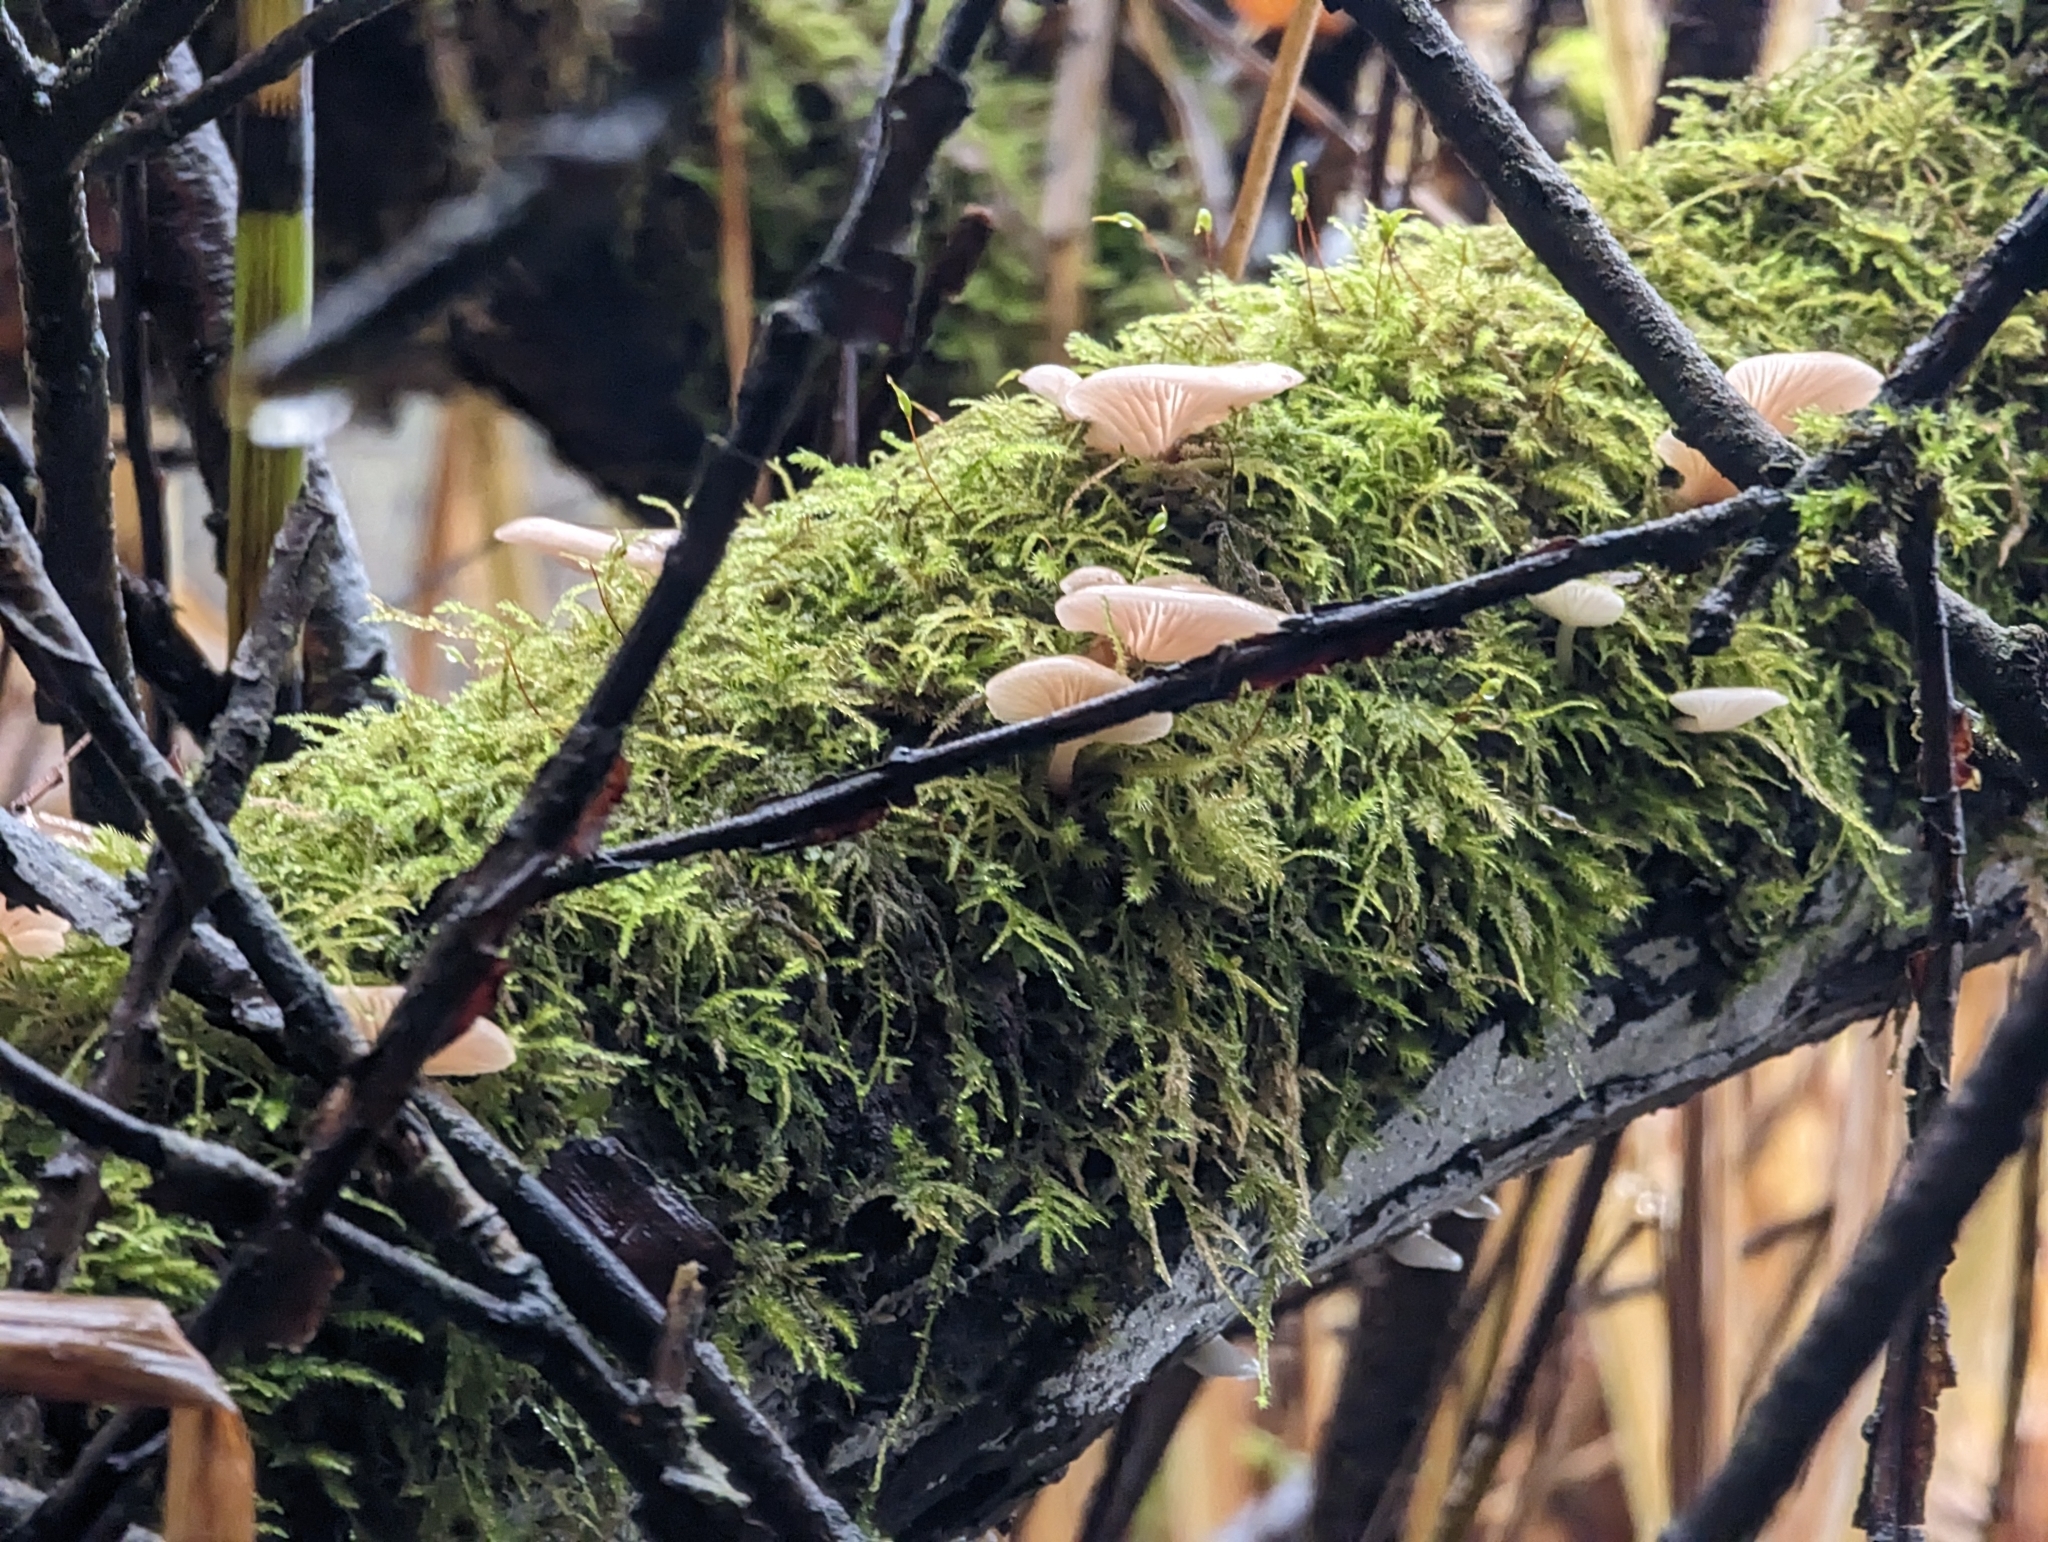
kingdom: Fungi
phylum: Basidiomycota
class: Agaricomycetes
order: Agaricales
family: Mycenaceae
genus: Panellus
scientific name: Panellus longinquus
